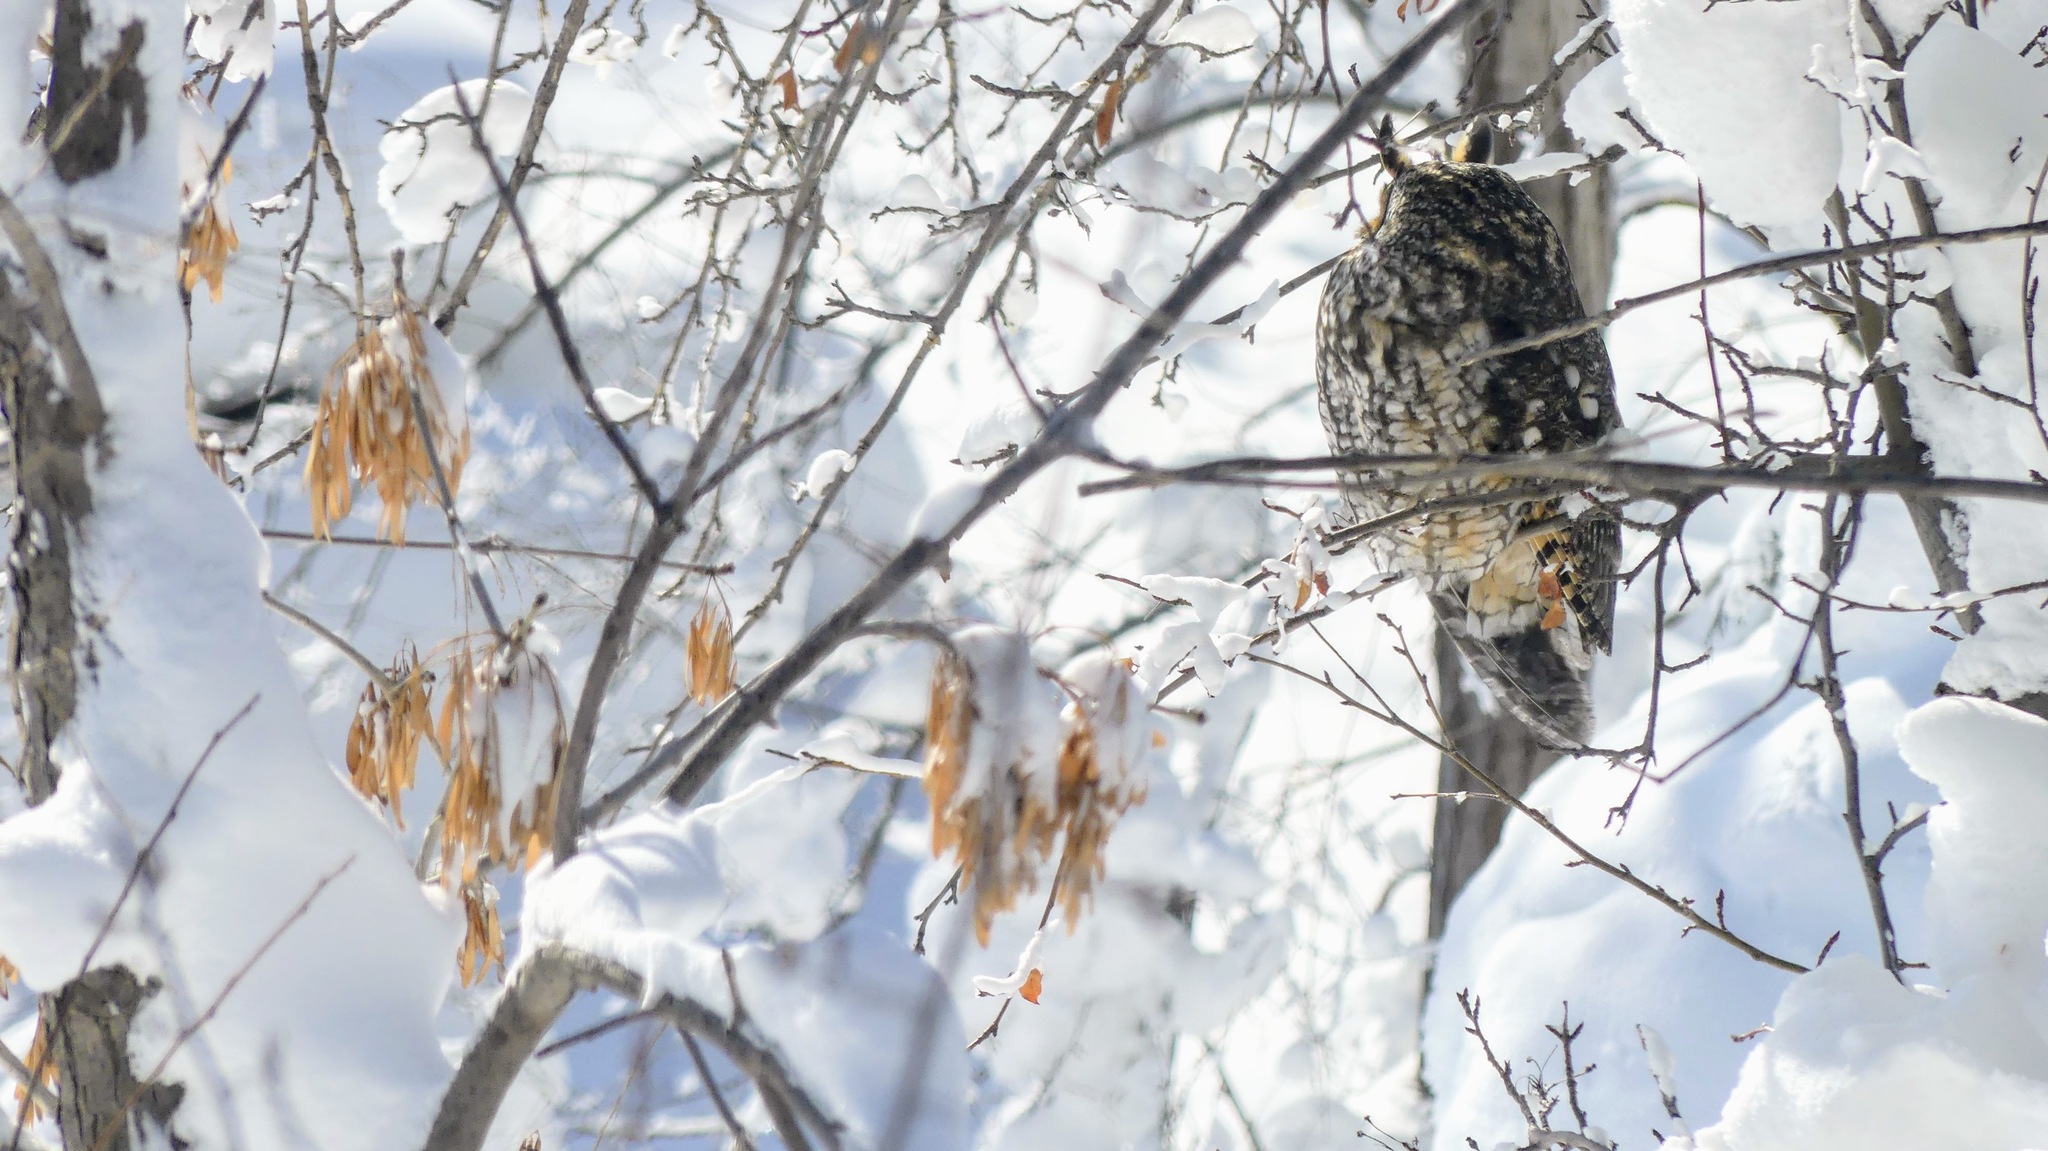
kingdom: Animalia
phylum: Chordata
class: Aves
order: Strigiformes
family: Strigidae
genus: Asio
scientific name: Asio otus
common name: Long-eared owl
